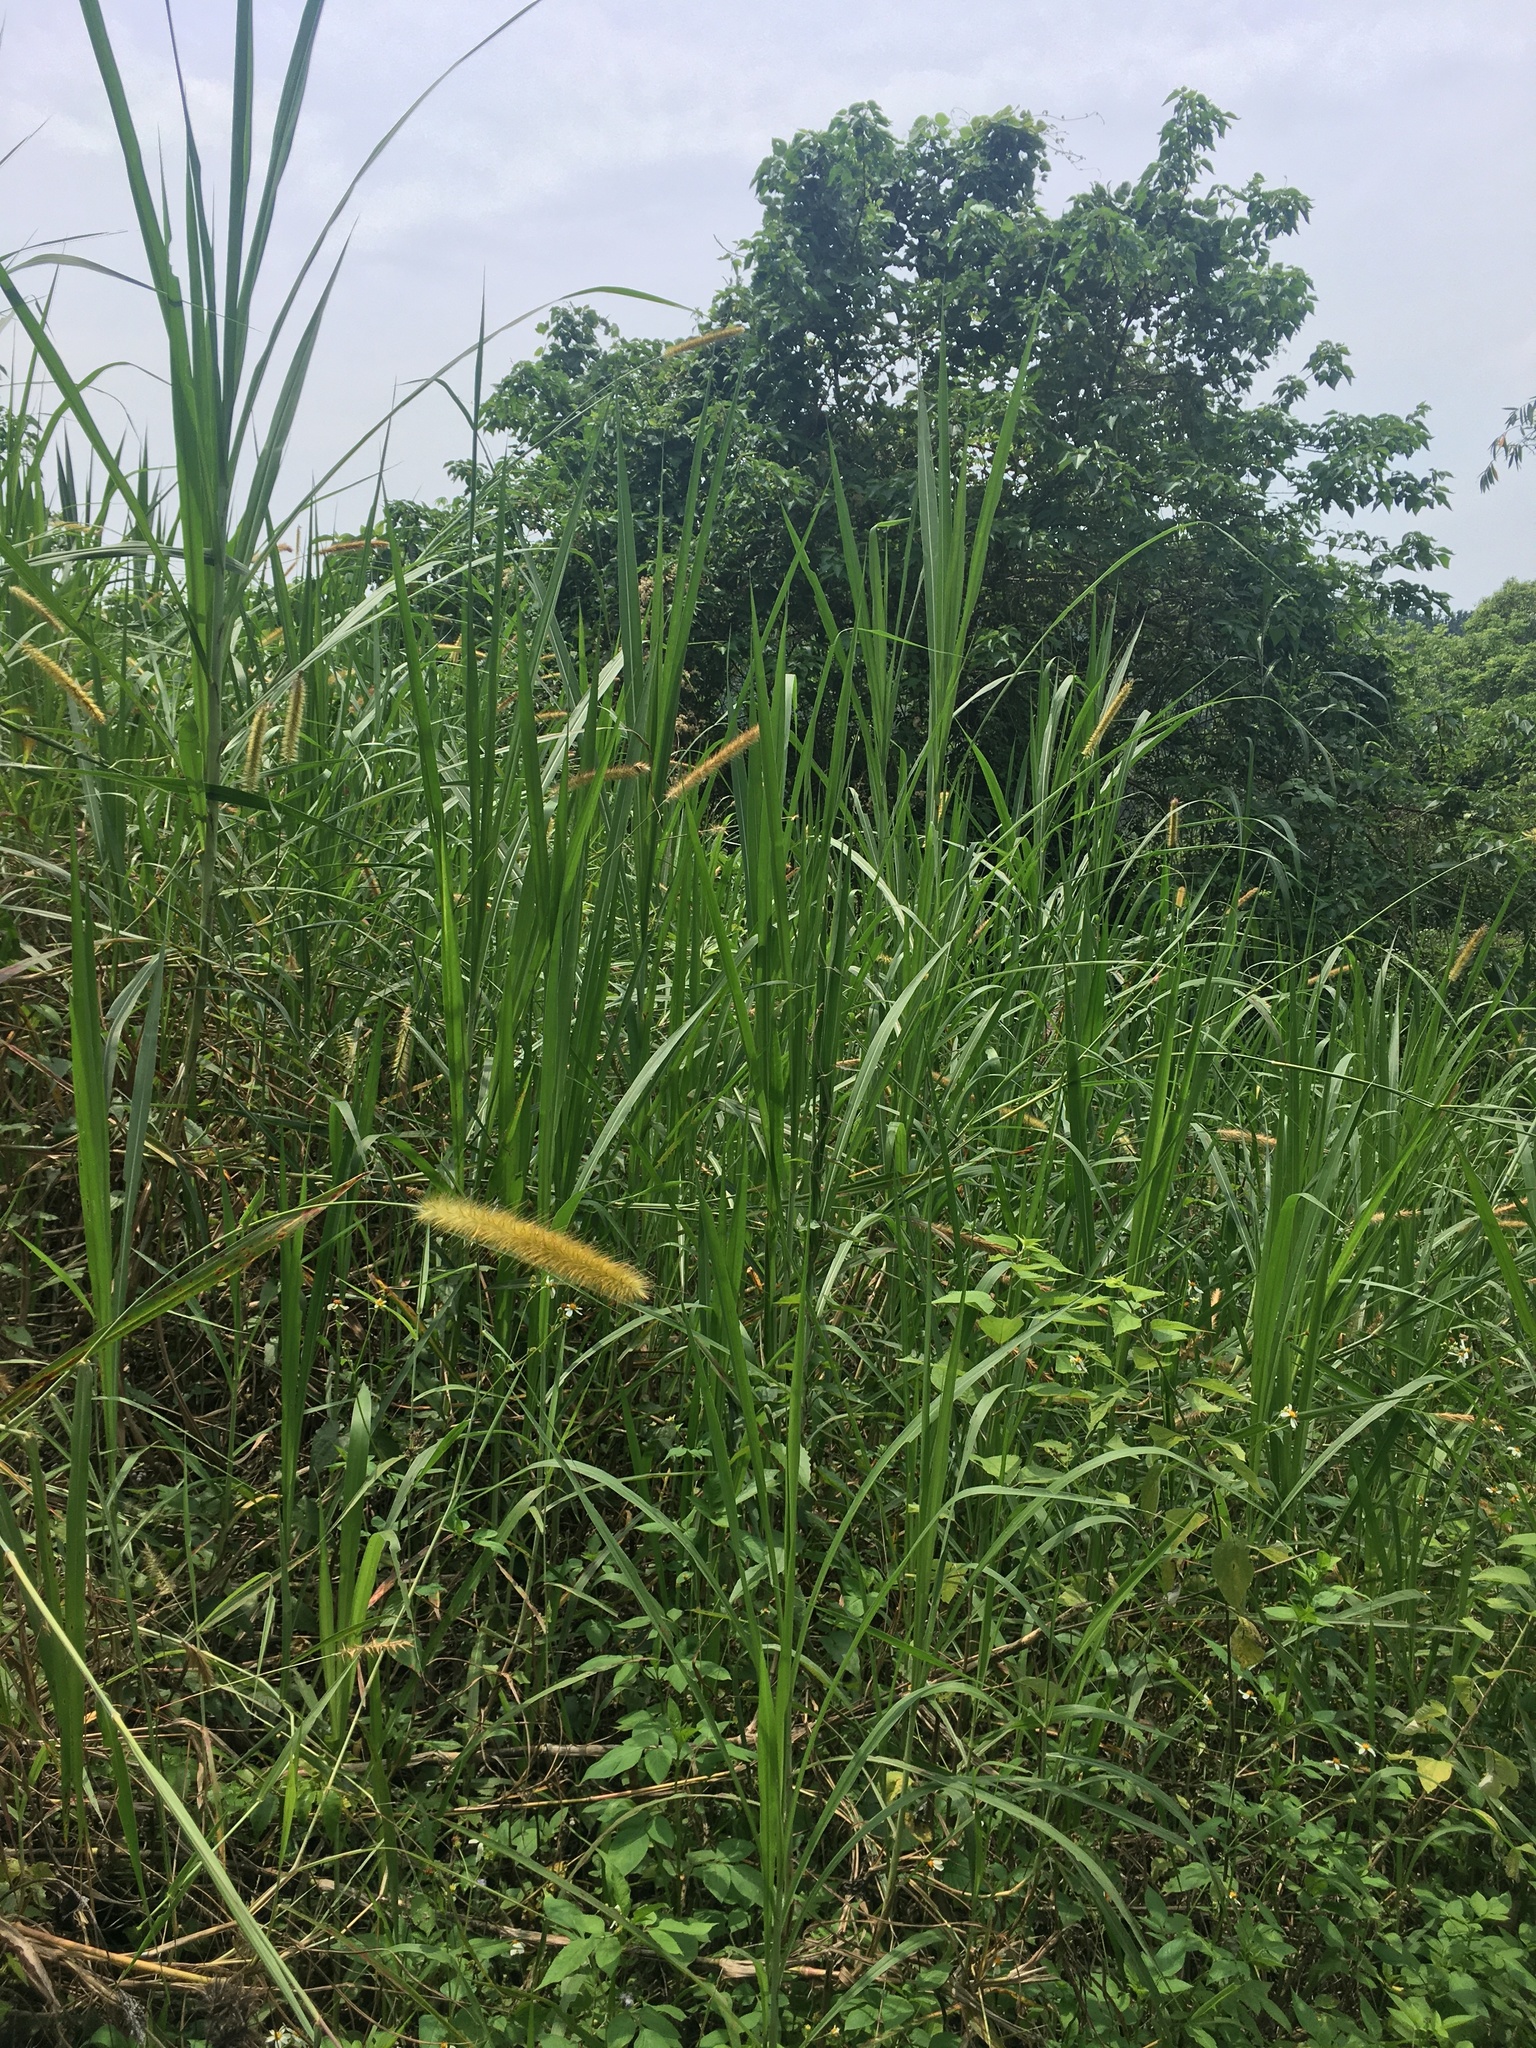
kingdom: Plantae
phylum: Tracheophyta
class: Liliopsida
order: Poales
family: Poaceae
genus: Cenchrus
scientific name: Cenchrus purpureus
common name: Elephant grass
